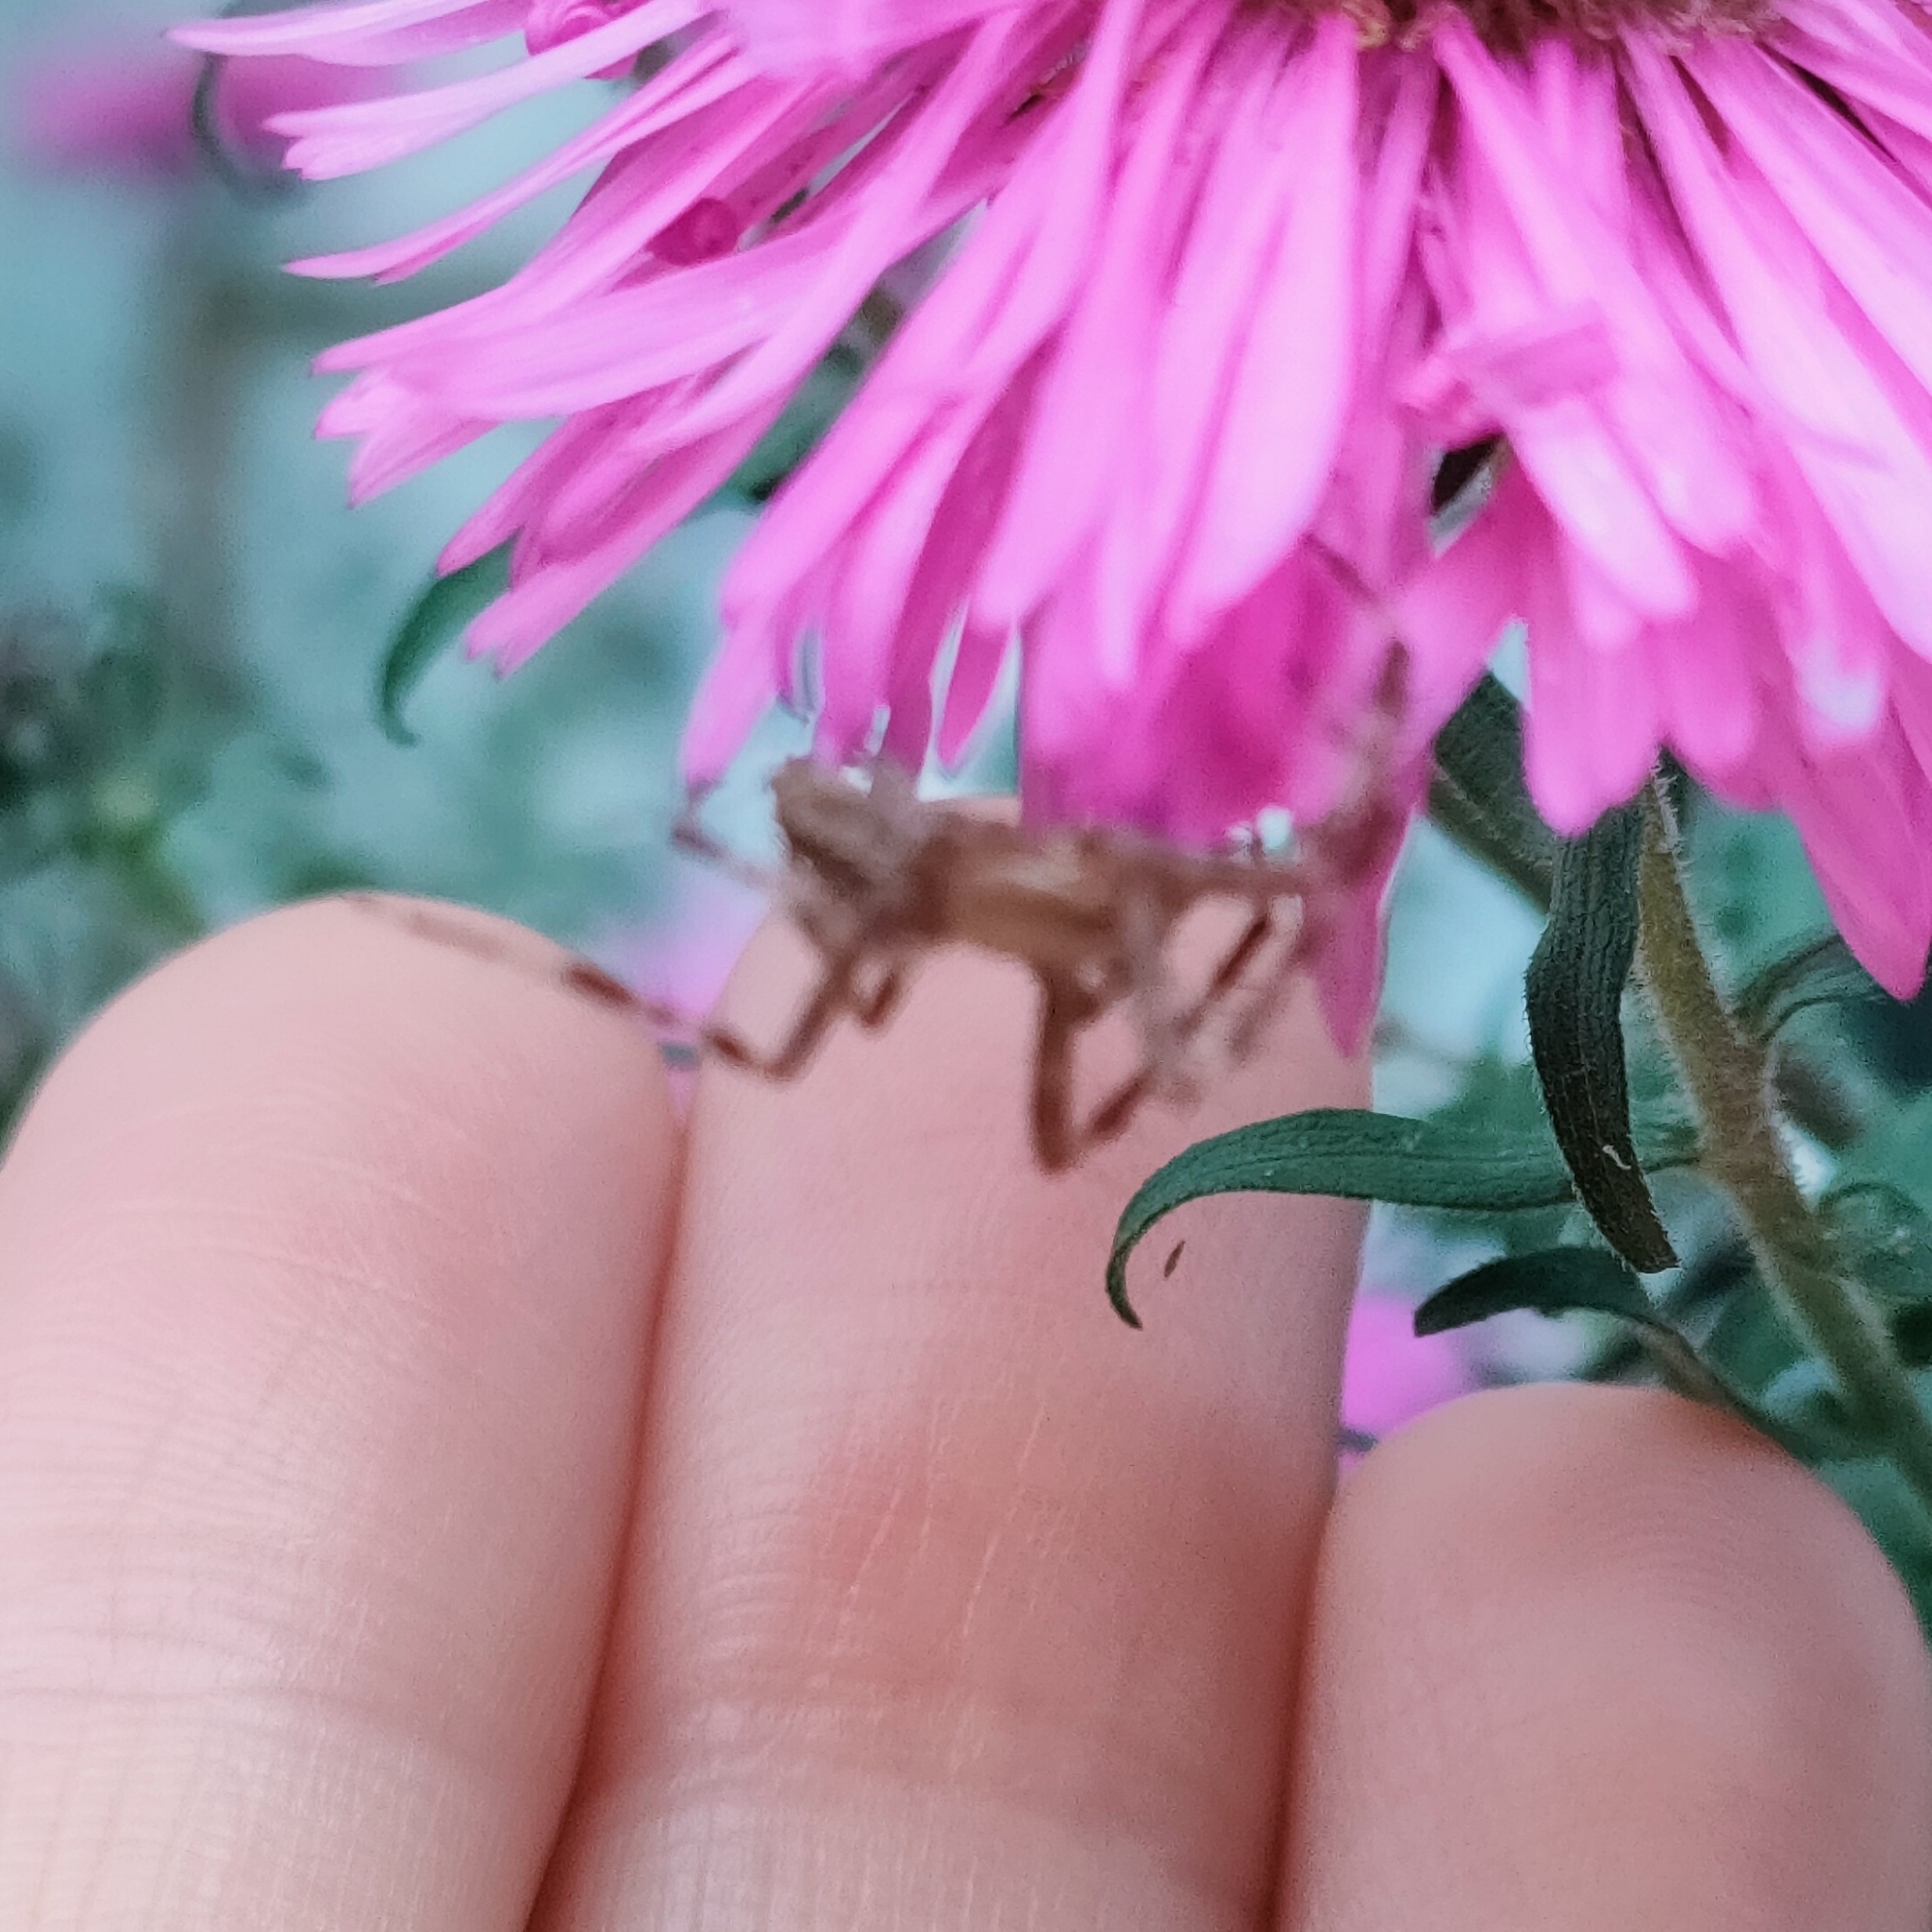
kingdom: Animalia
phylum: Arthropoda
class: Arachnida
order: Araneae
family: Araneidae
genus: Araneus
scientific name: Araneus diadematus
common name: Cross orbweaver
